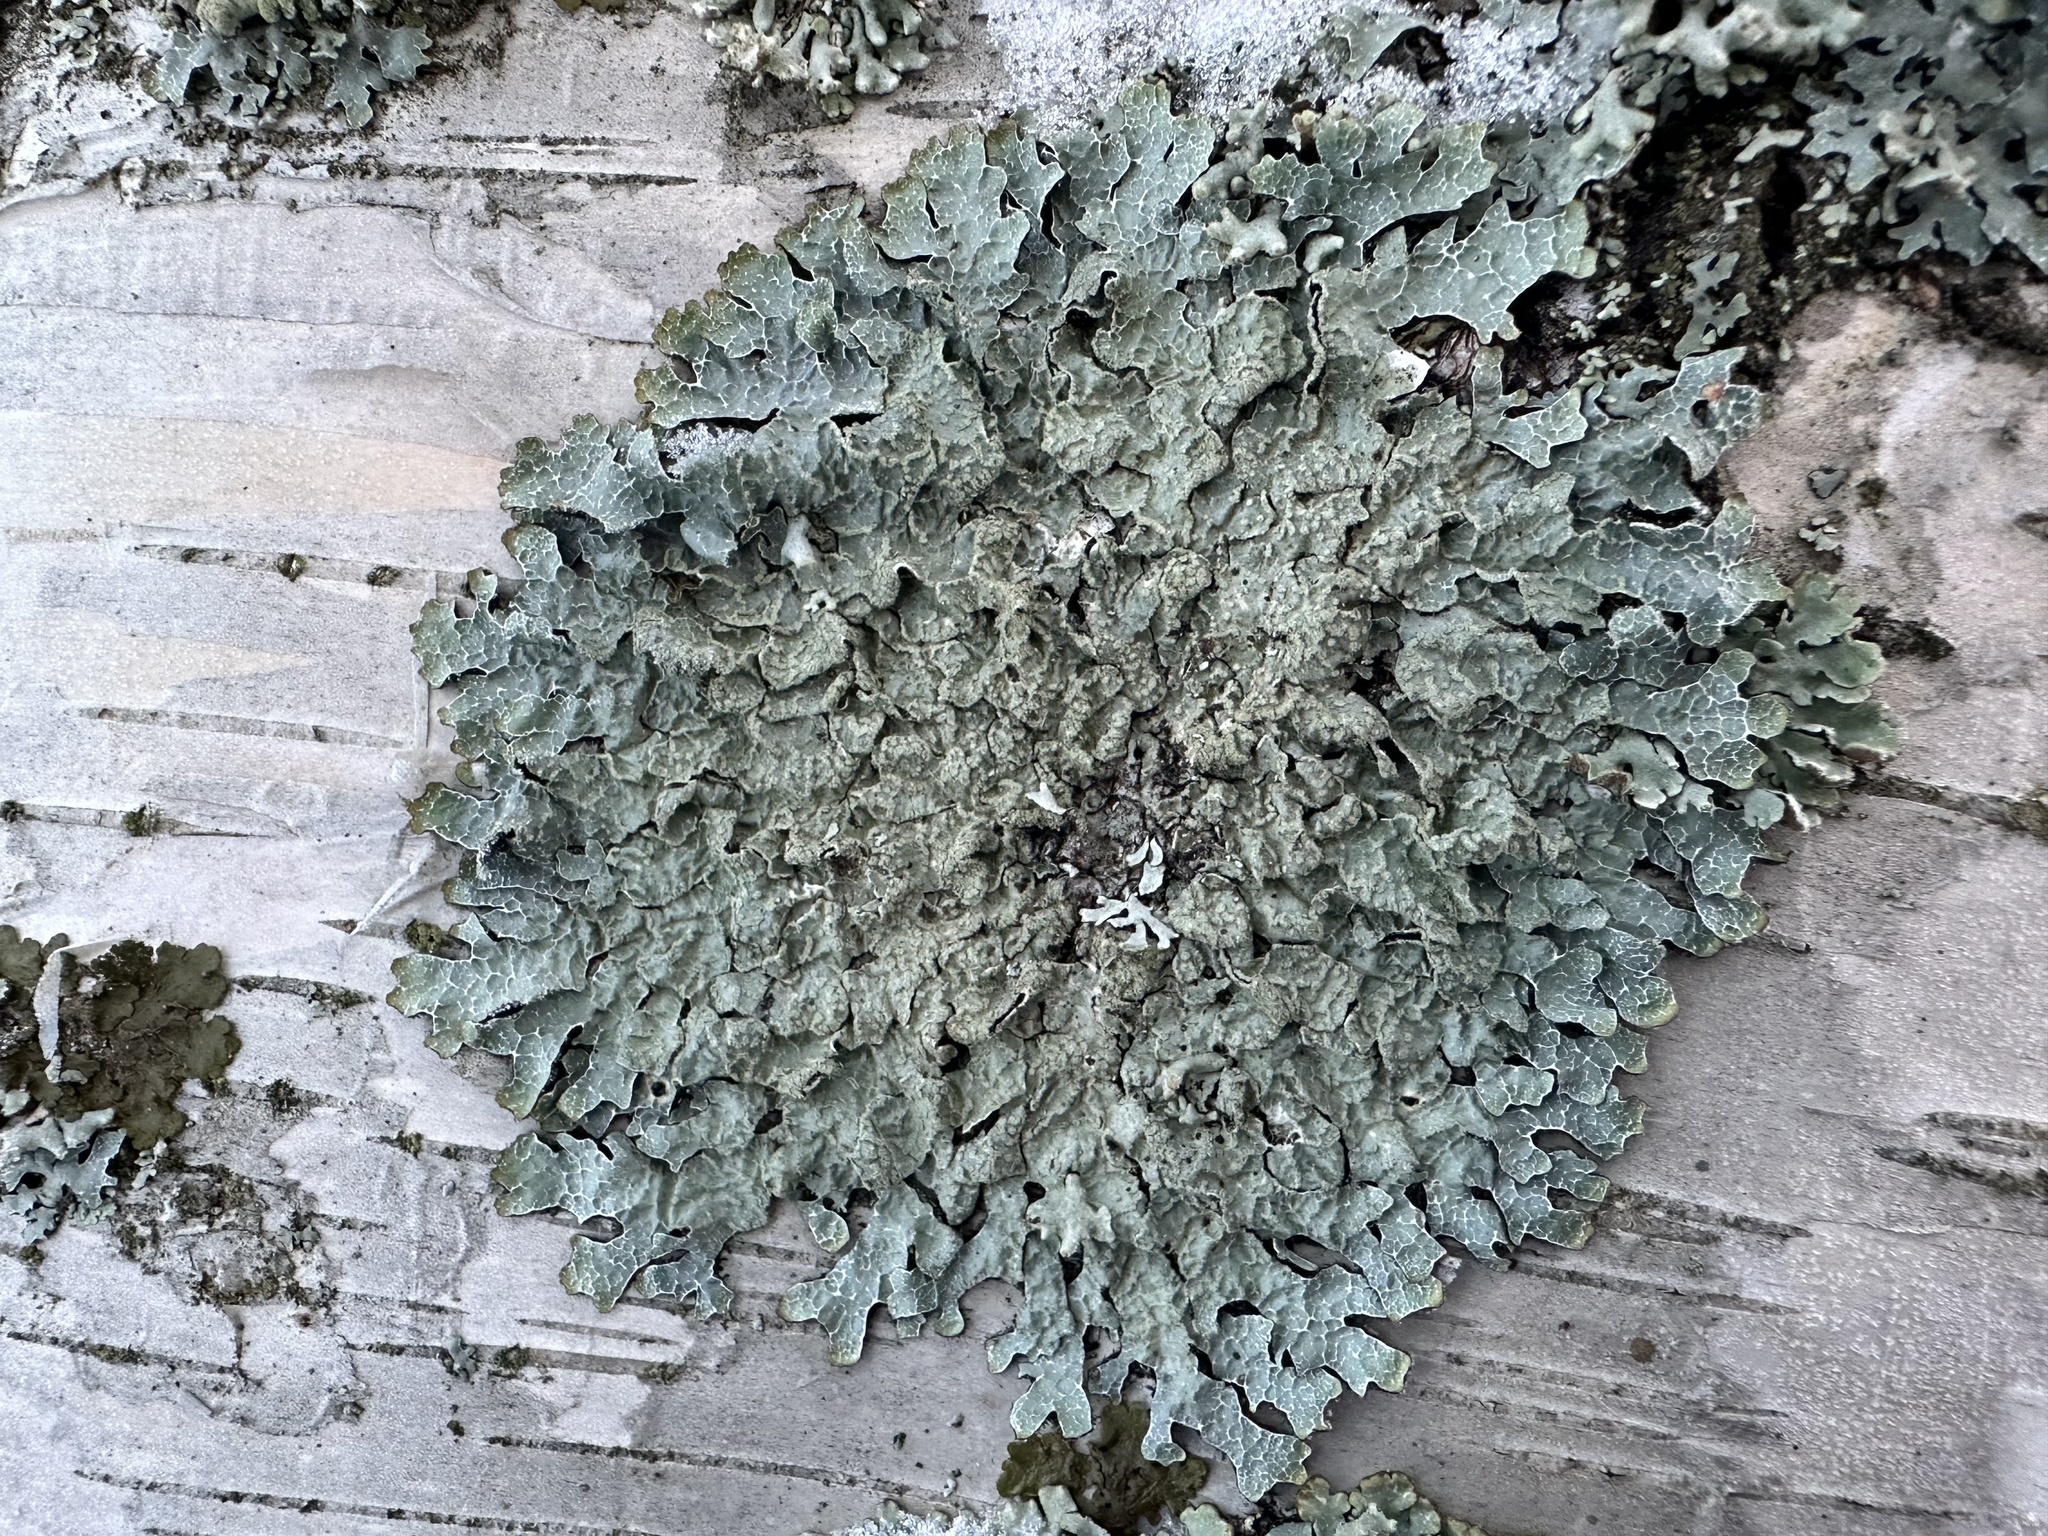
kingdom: Fungi
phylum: Ascomycota
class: Lecanoromycetes
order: Lecanorales
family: Parmeliaceae
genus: Parmelia
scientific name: Parmelia sulcata
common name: Netted shield lichen
